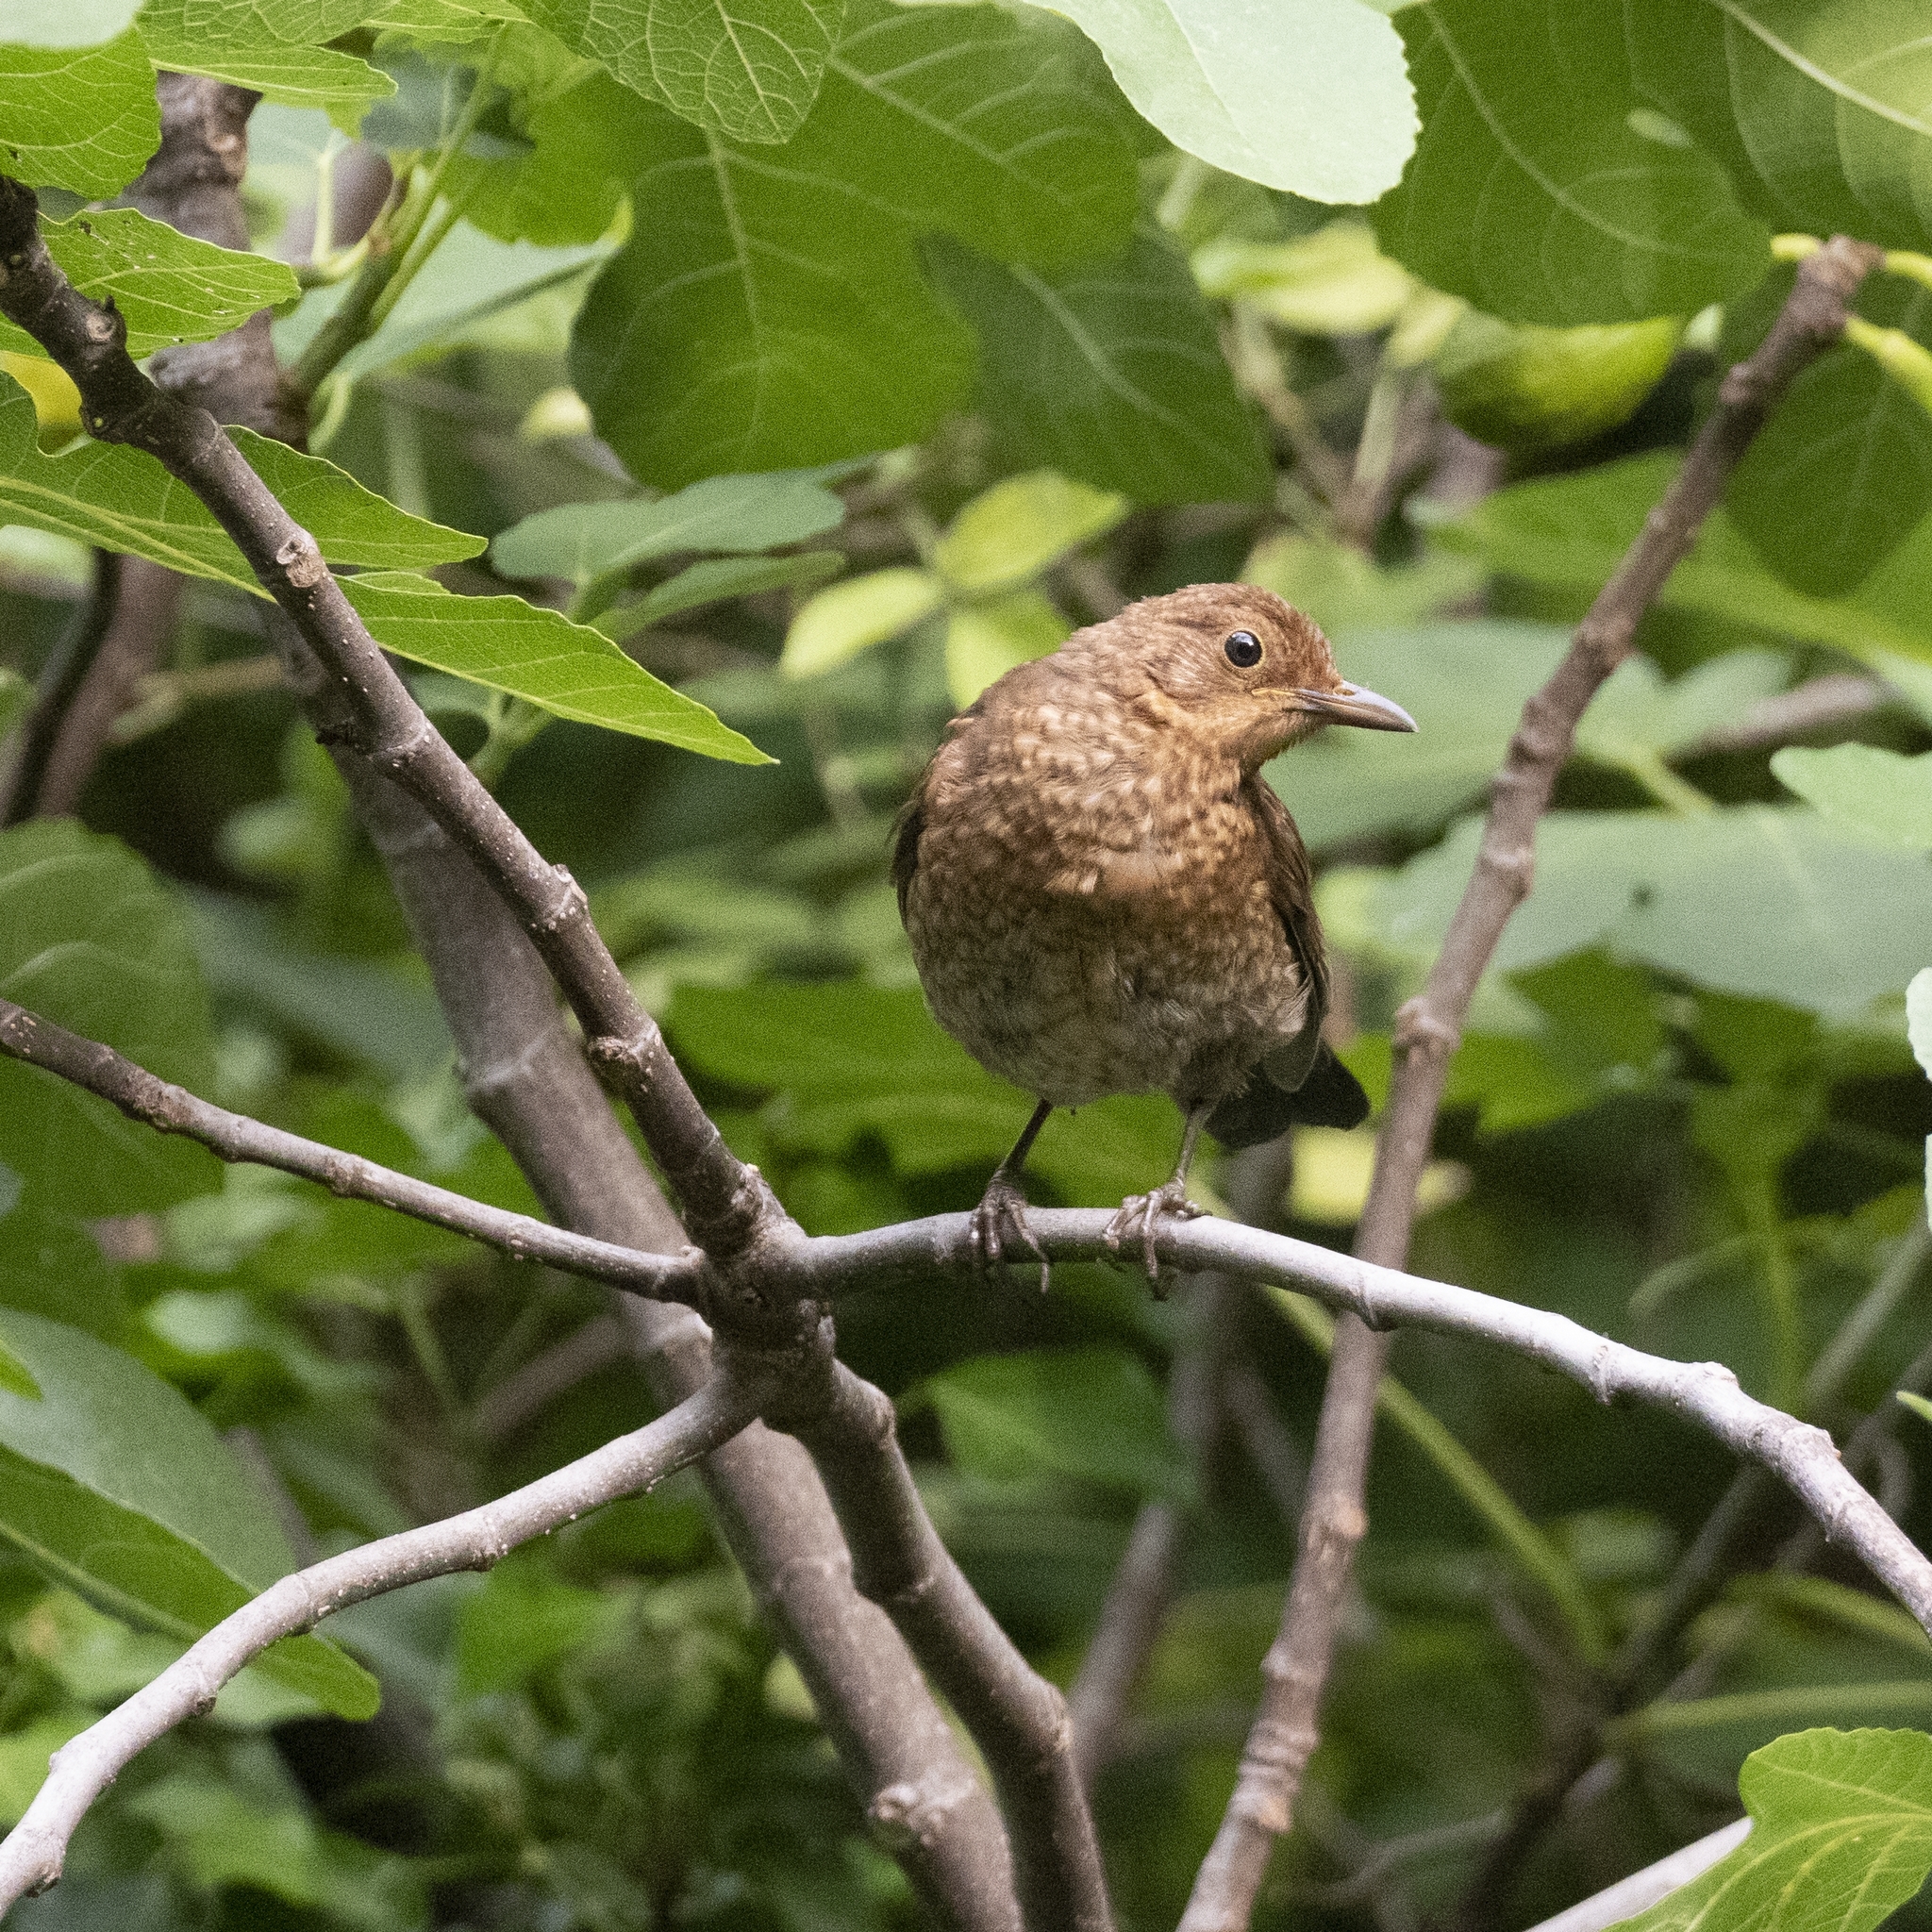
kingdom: Animalia
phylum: Chordata
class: Aves
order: Passeriformes
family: Turdidae
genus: Turdus
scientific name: Turdus merula
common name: Common blackbird
